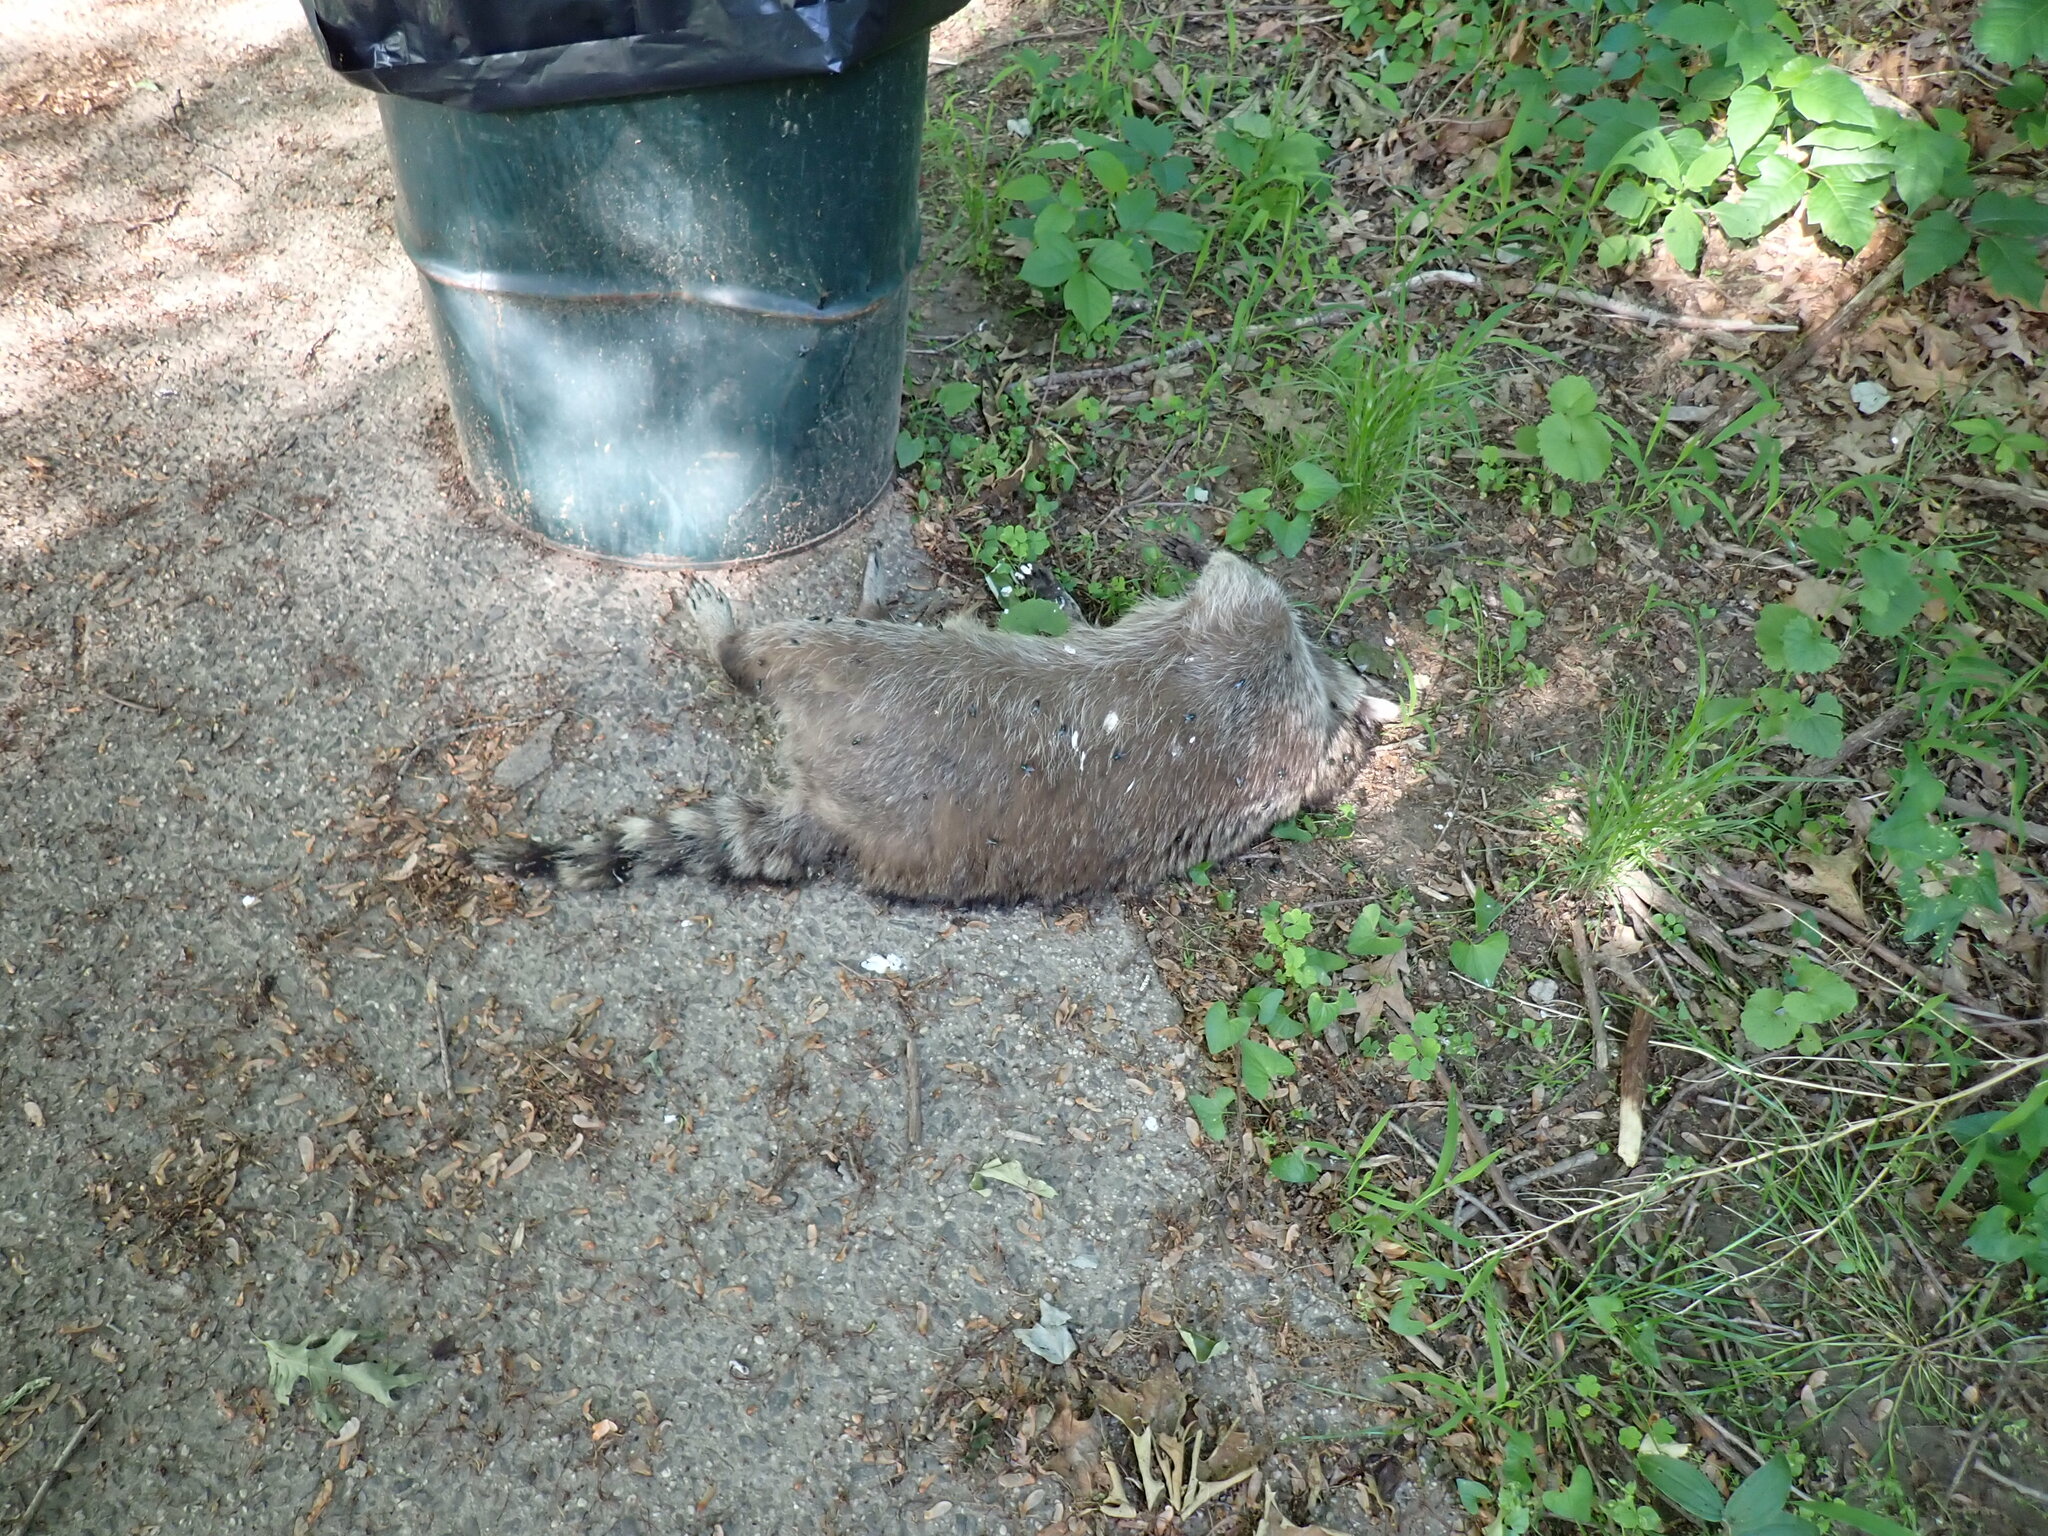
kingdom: Animalia
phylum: Chordata
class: Mammalia
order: Carnivora
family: Procyonidae
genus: Procyon
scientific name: Procyon lotor
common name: Raccoon
